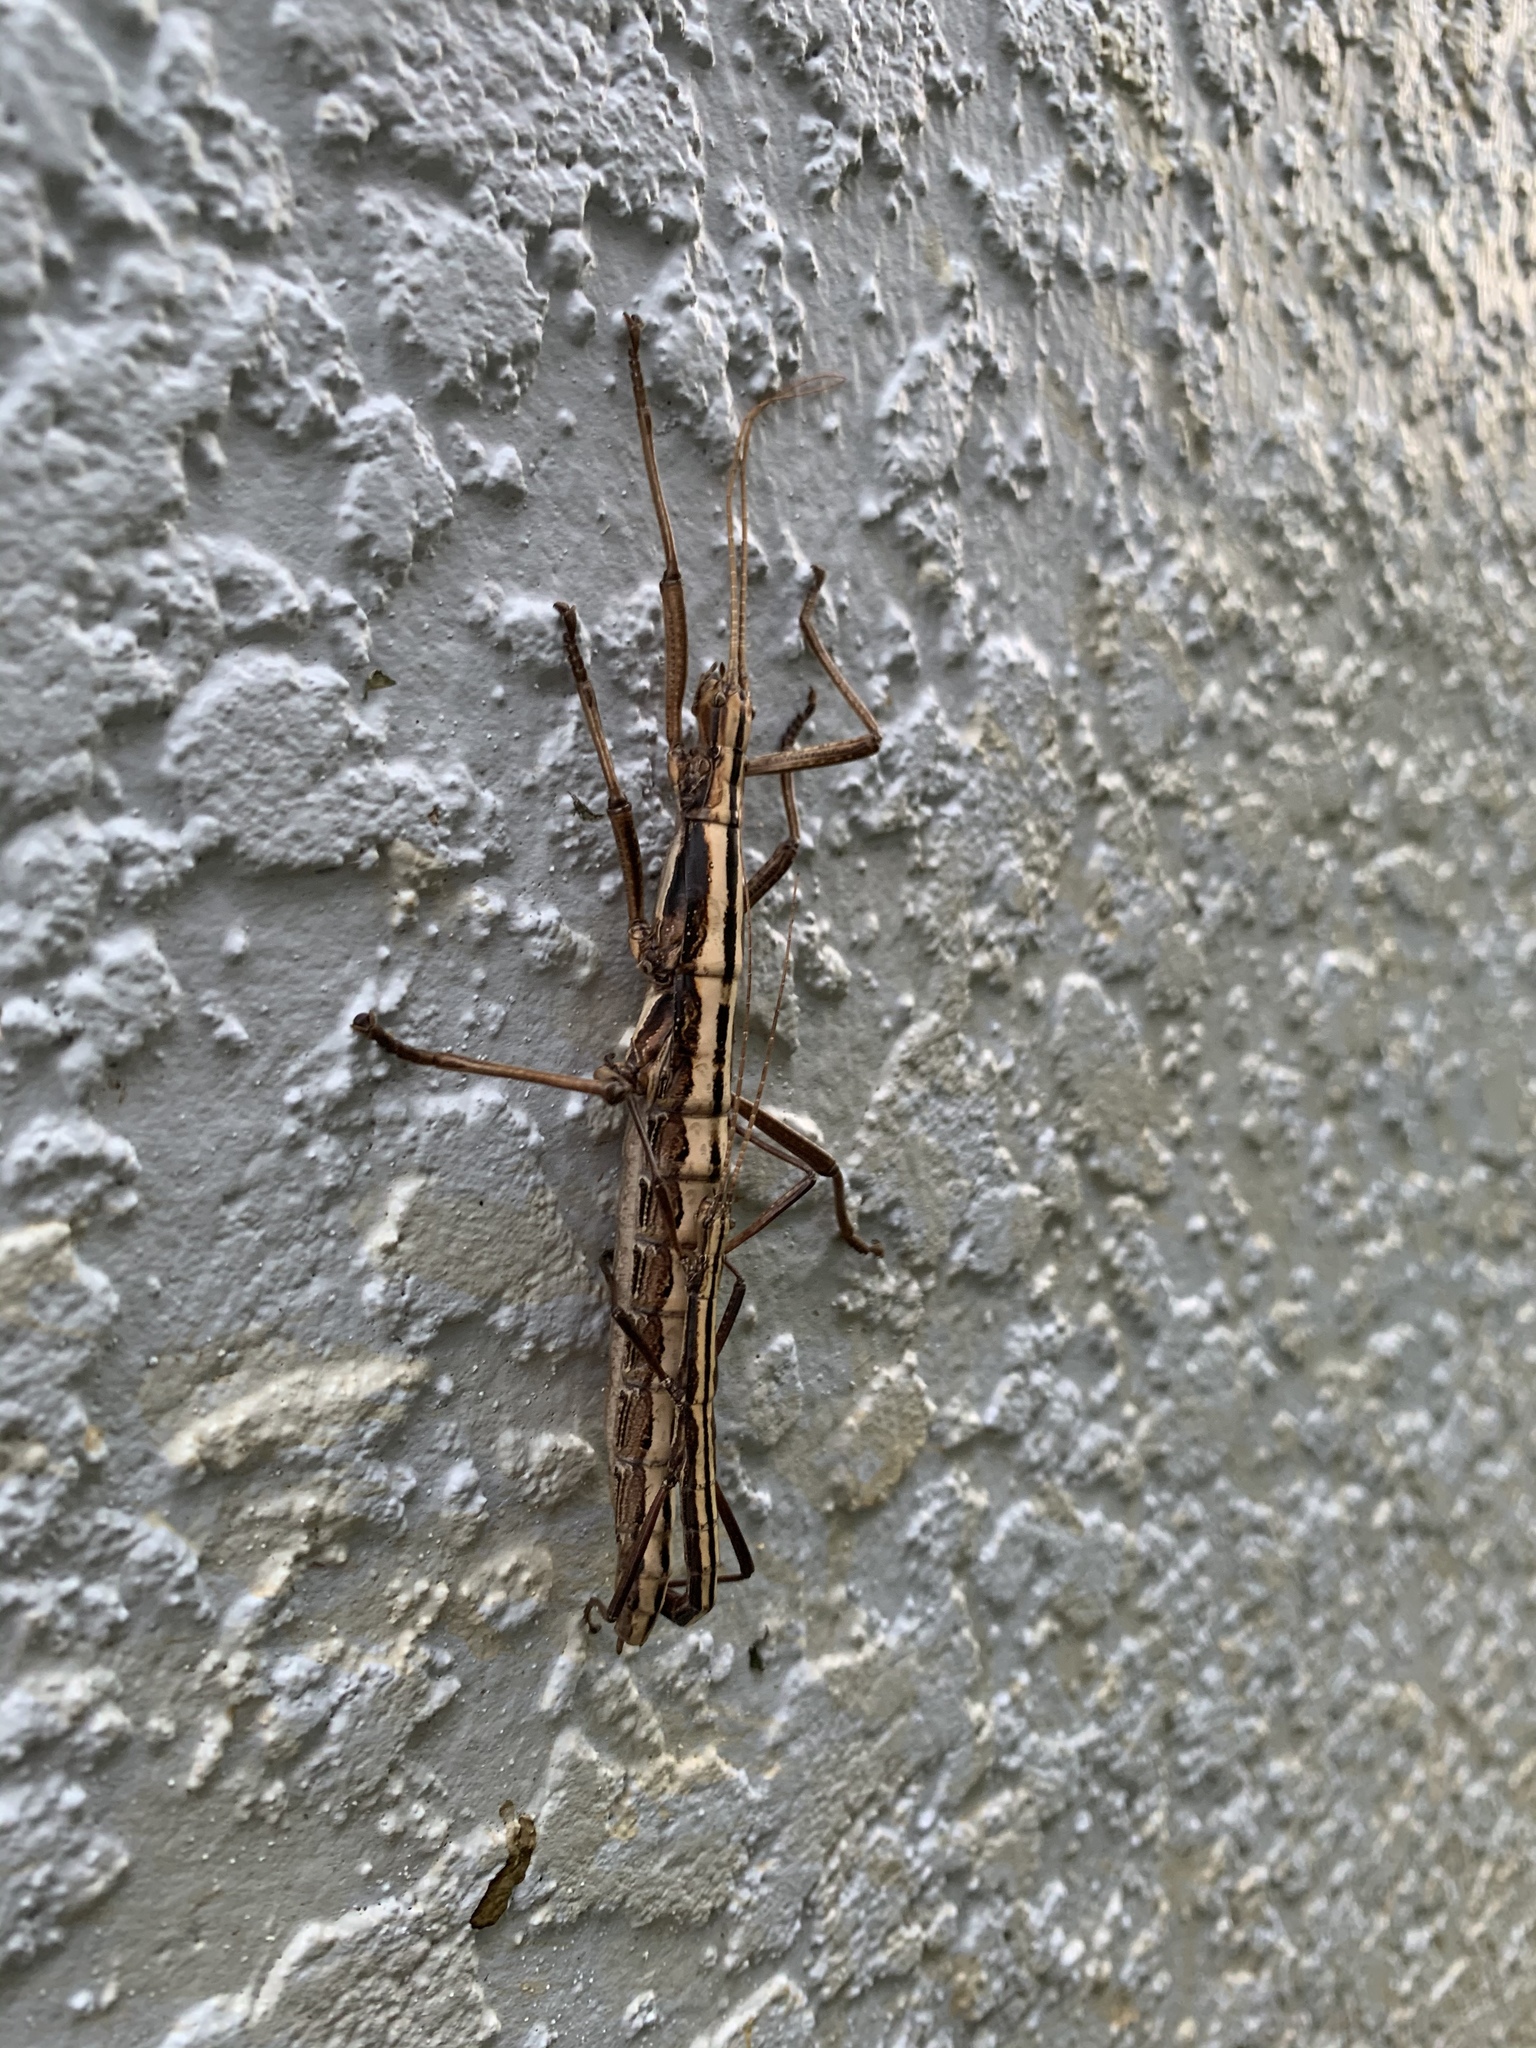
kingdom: Animalia
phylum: Arthropoda
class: Insecta
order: Phasmida
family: Pseudophasmatidae
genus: Anisomorpha
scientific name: Anisomorpha buprestoides
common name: Florida stick insect
